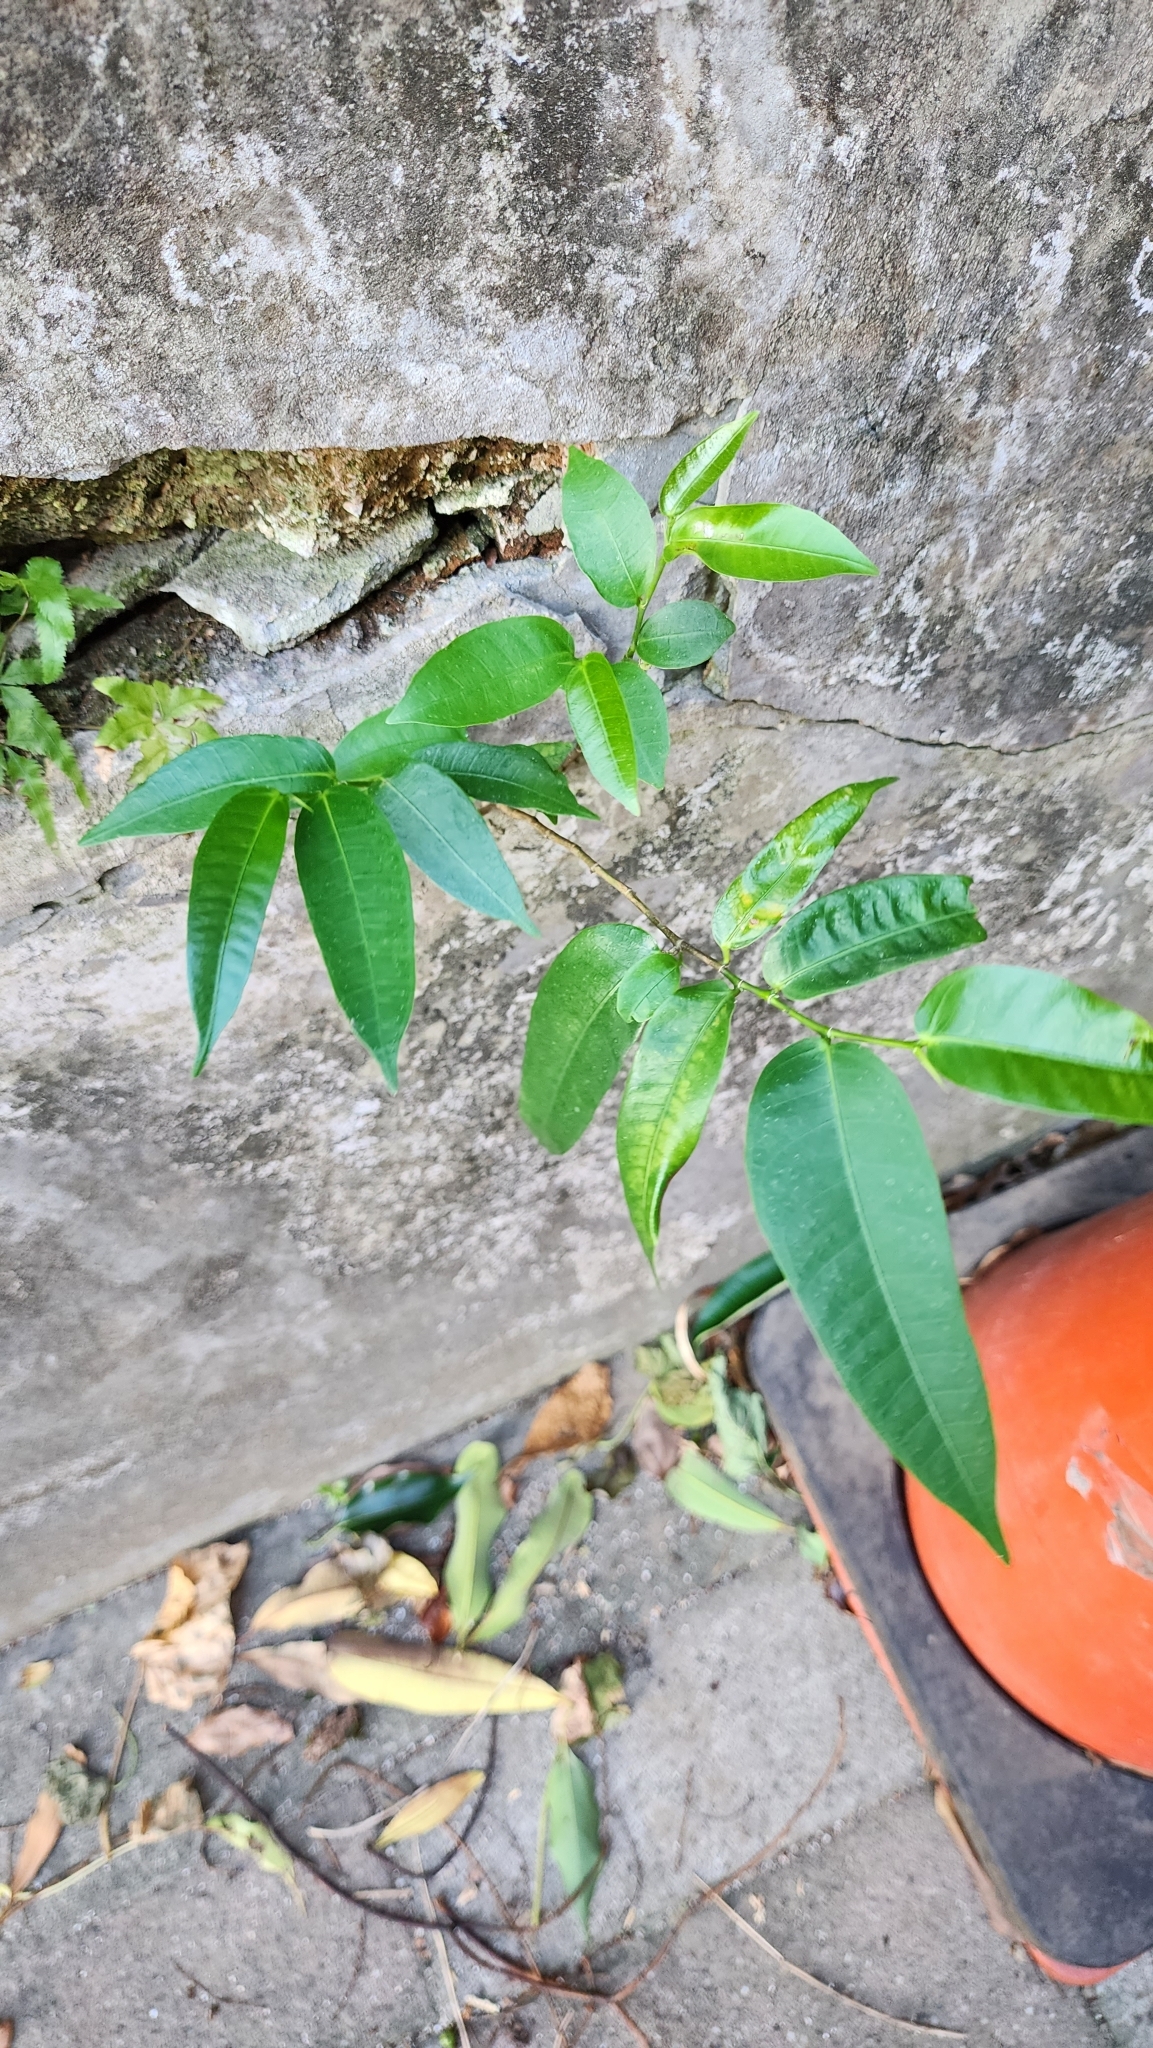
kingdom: Plantae
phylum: Tracheophyta
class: Magnoliopsida
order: Rosales
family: Moraceae
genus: Ficus
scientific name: Ficus virgata
